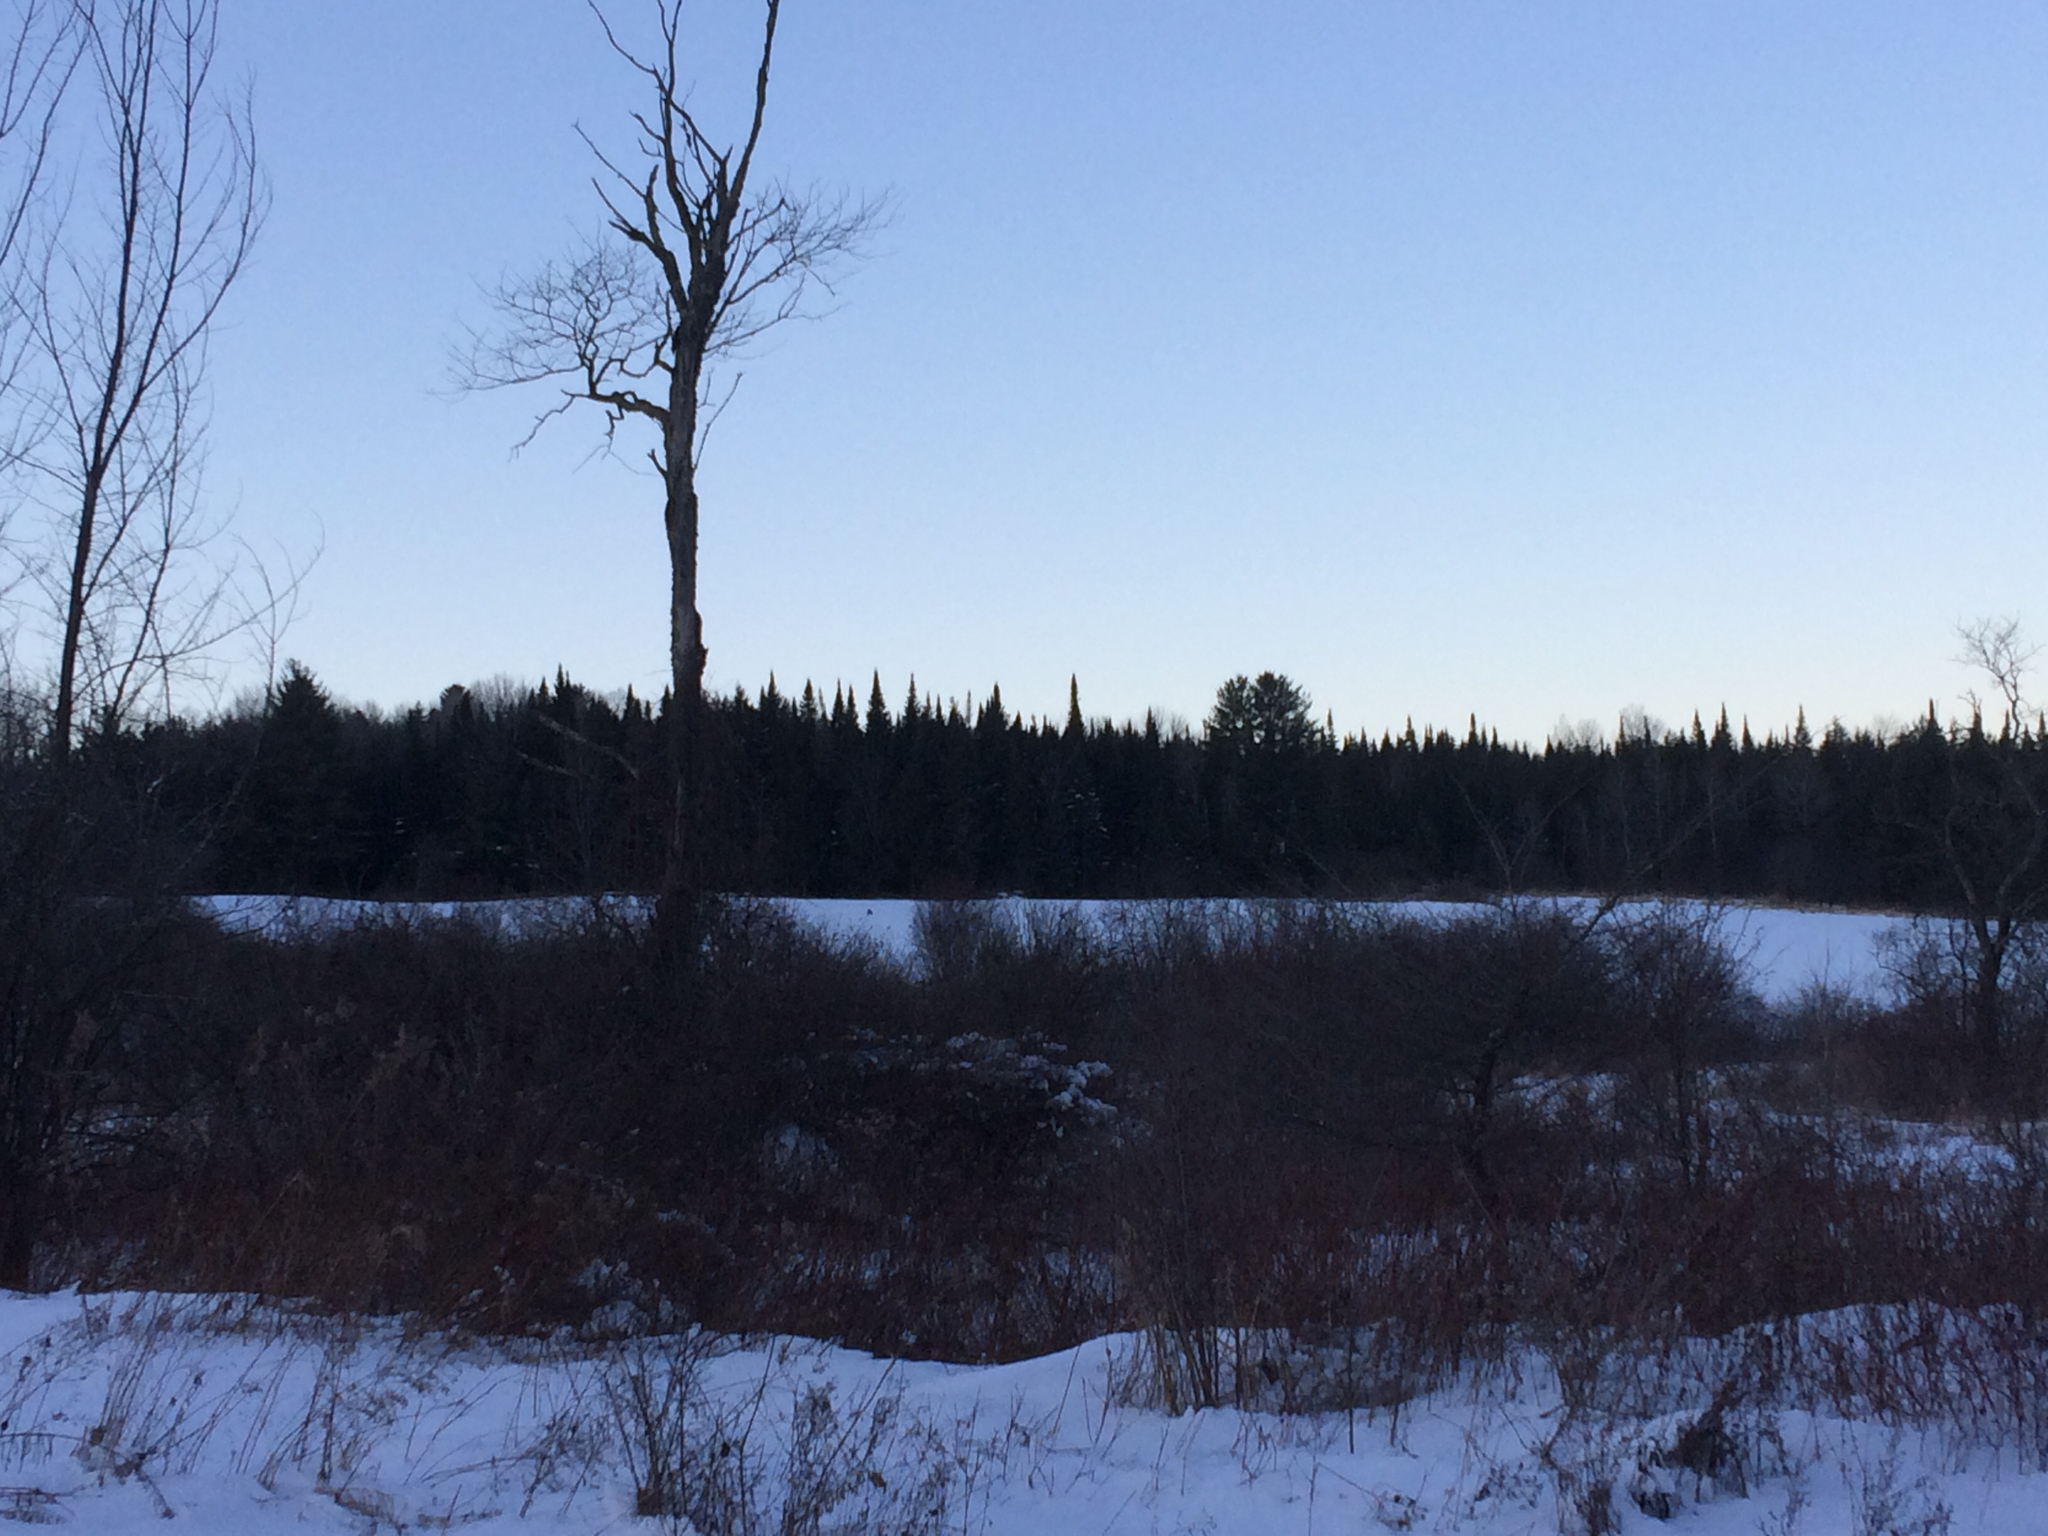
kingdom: Plantae
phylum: Tracheophyta
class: Pinopsida
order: Pinales
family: Pinaceae
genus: Abies
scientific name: Abies balsamea
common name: Balsam fir
